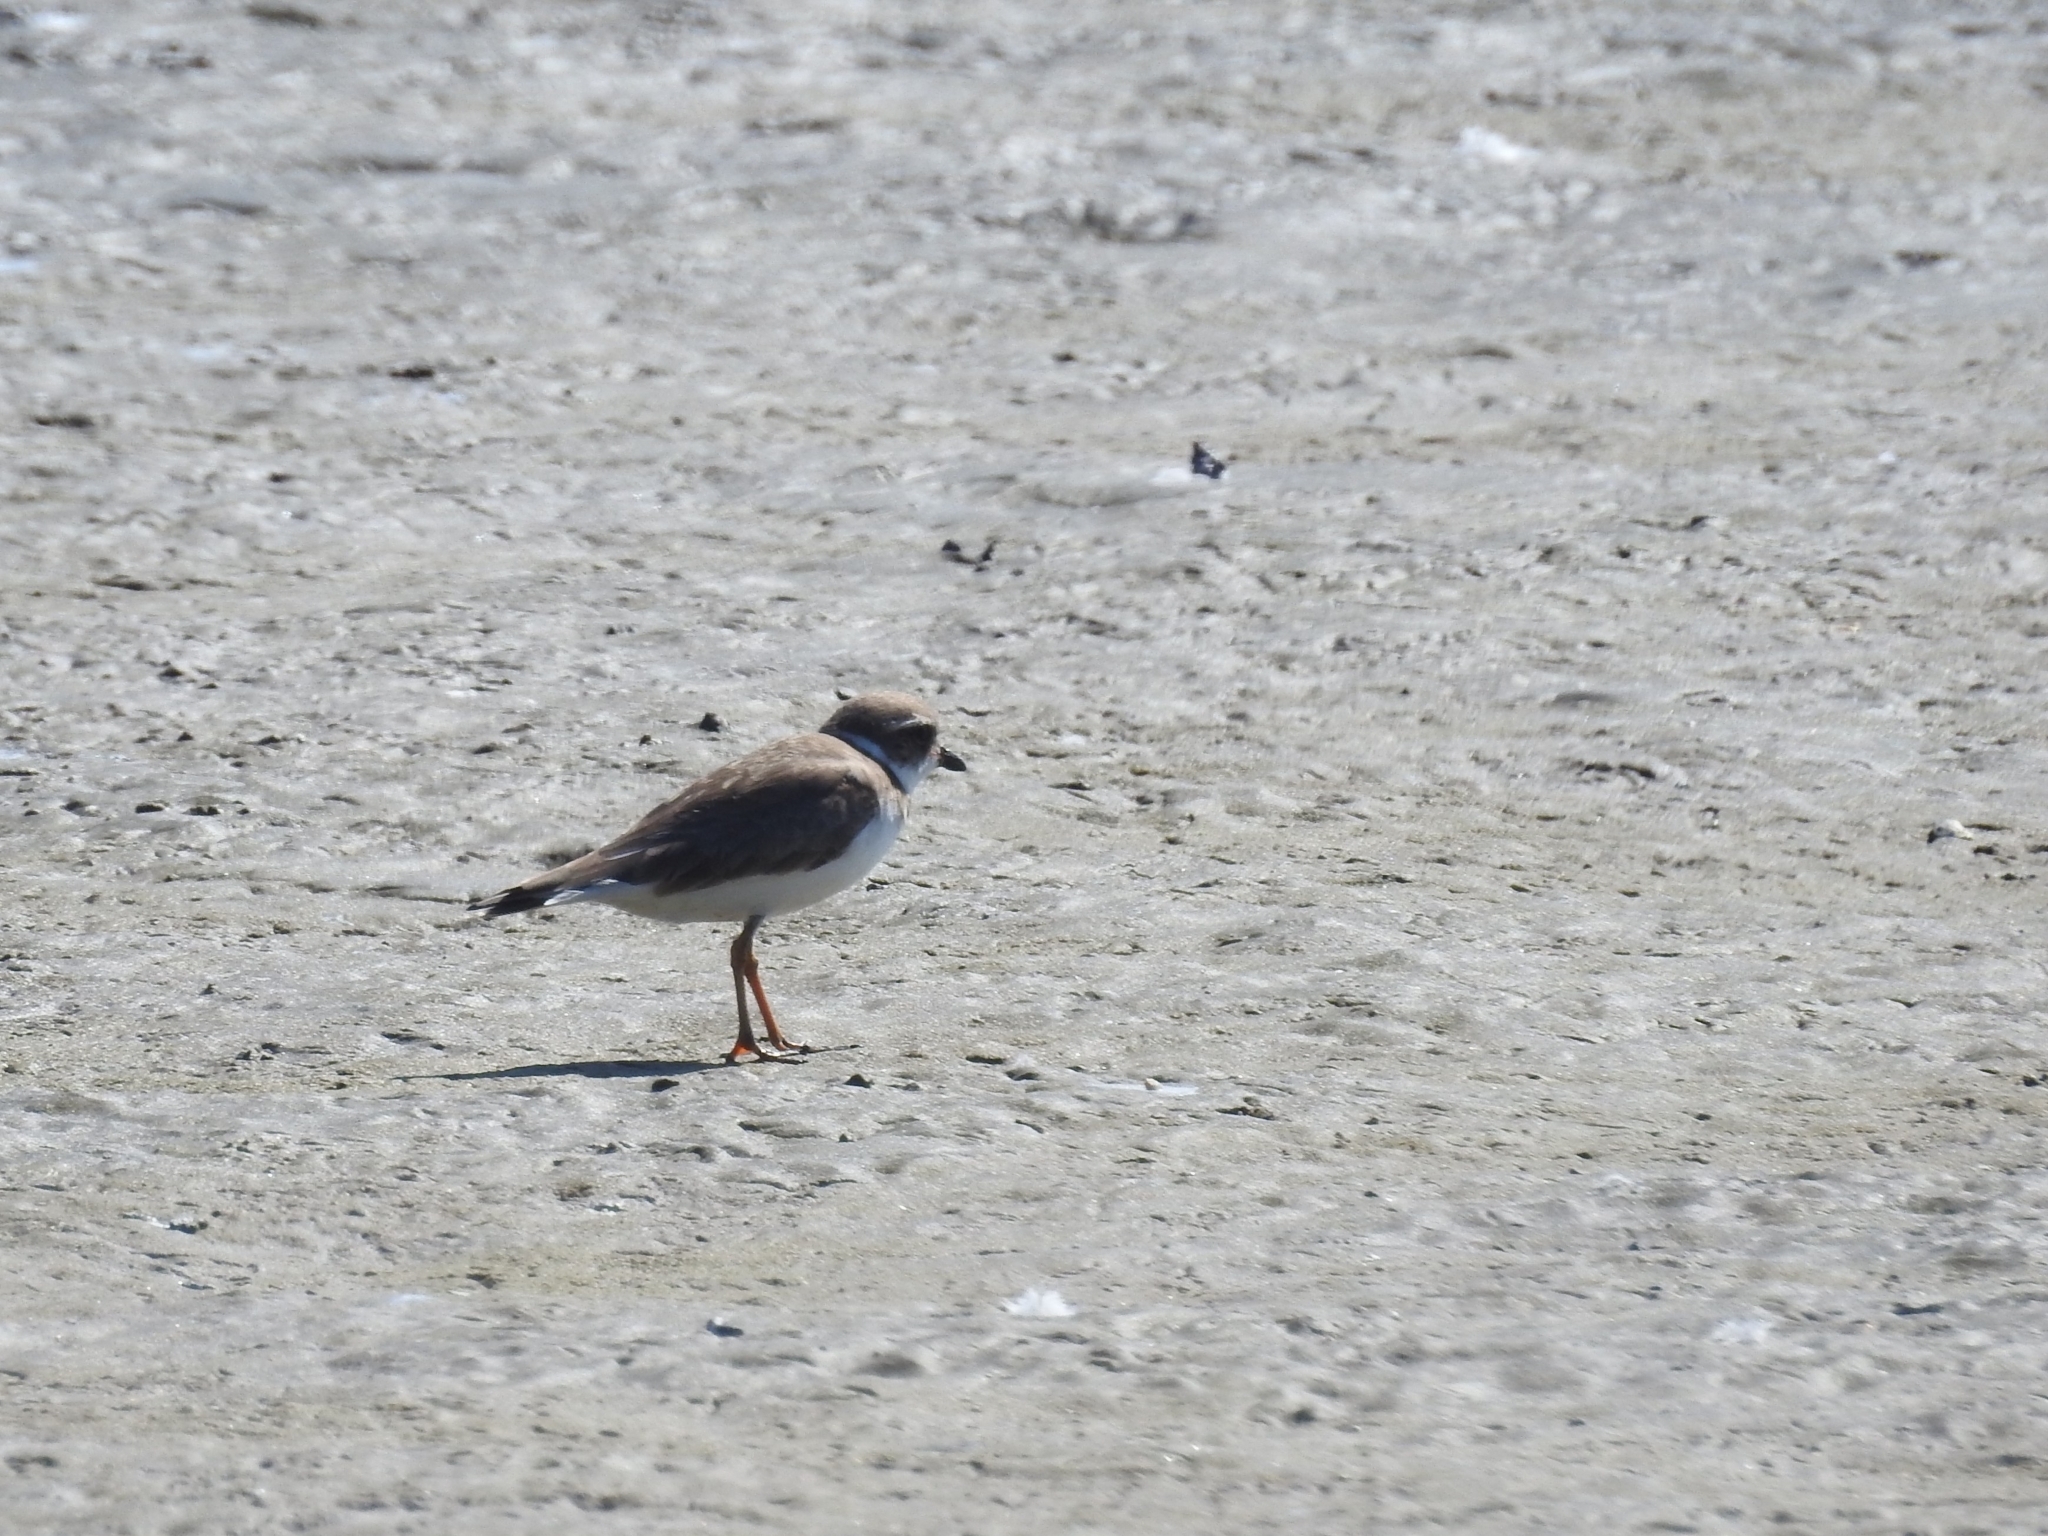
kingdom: Animalia
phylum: Chordata
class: Aves
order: Charadriiformes
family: Charadriidae
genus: Charadrius
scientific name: Charadrius semipalmatus
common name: Semipalmated plover
